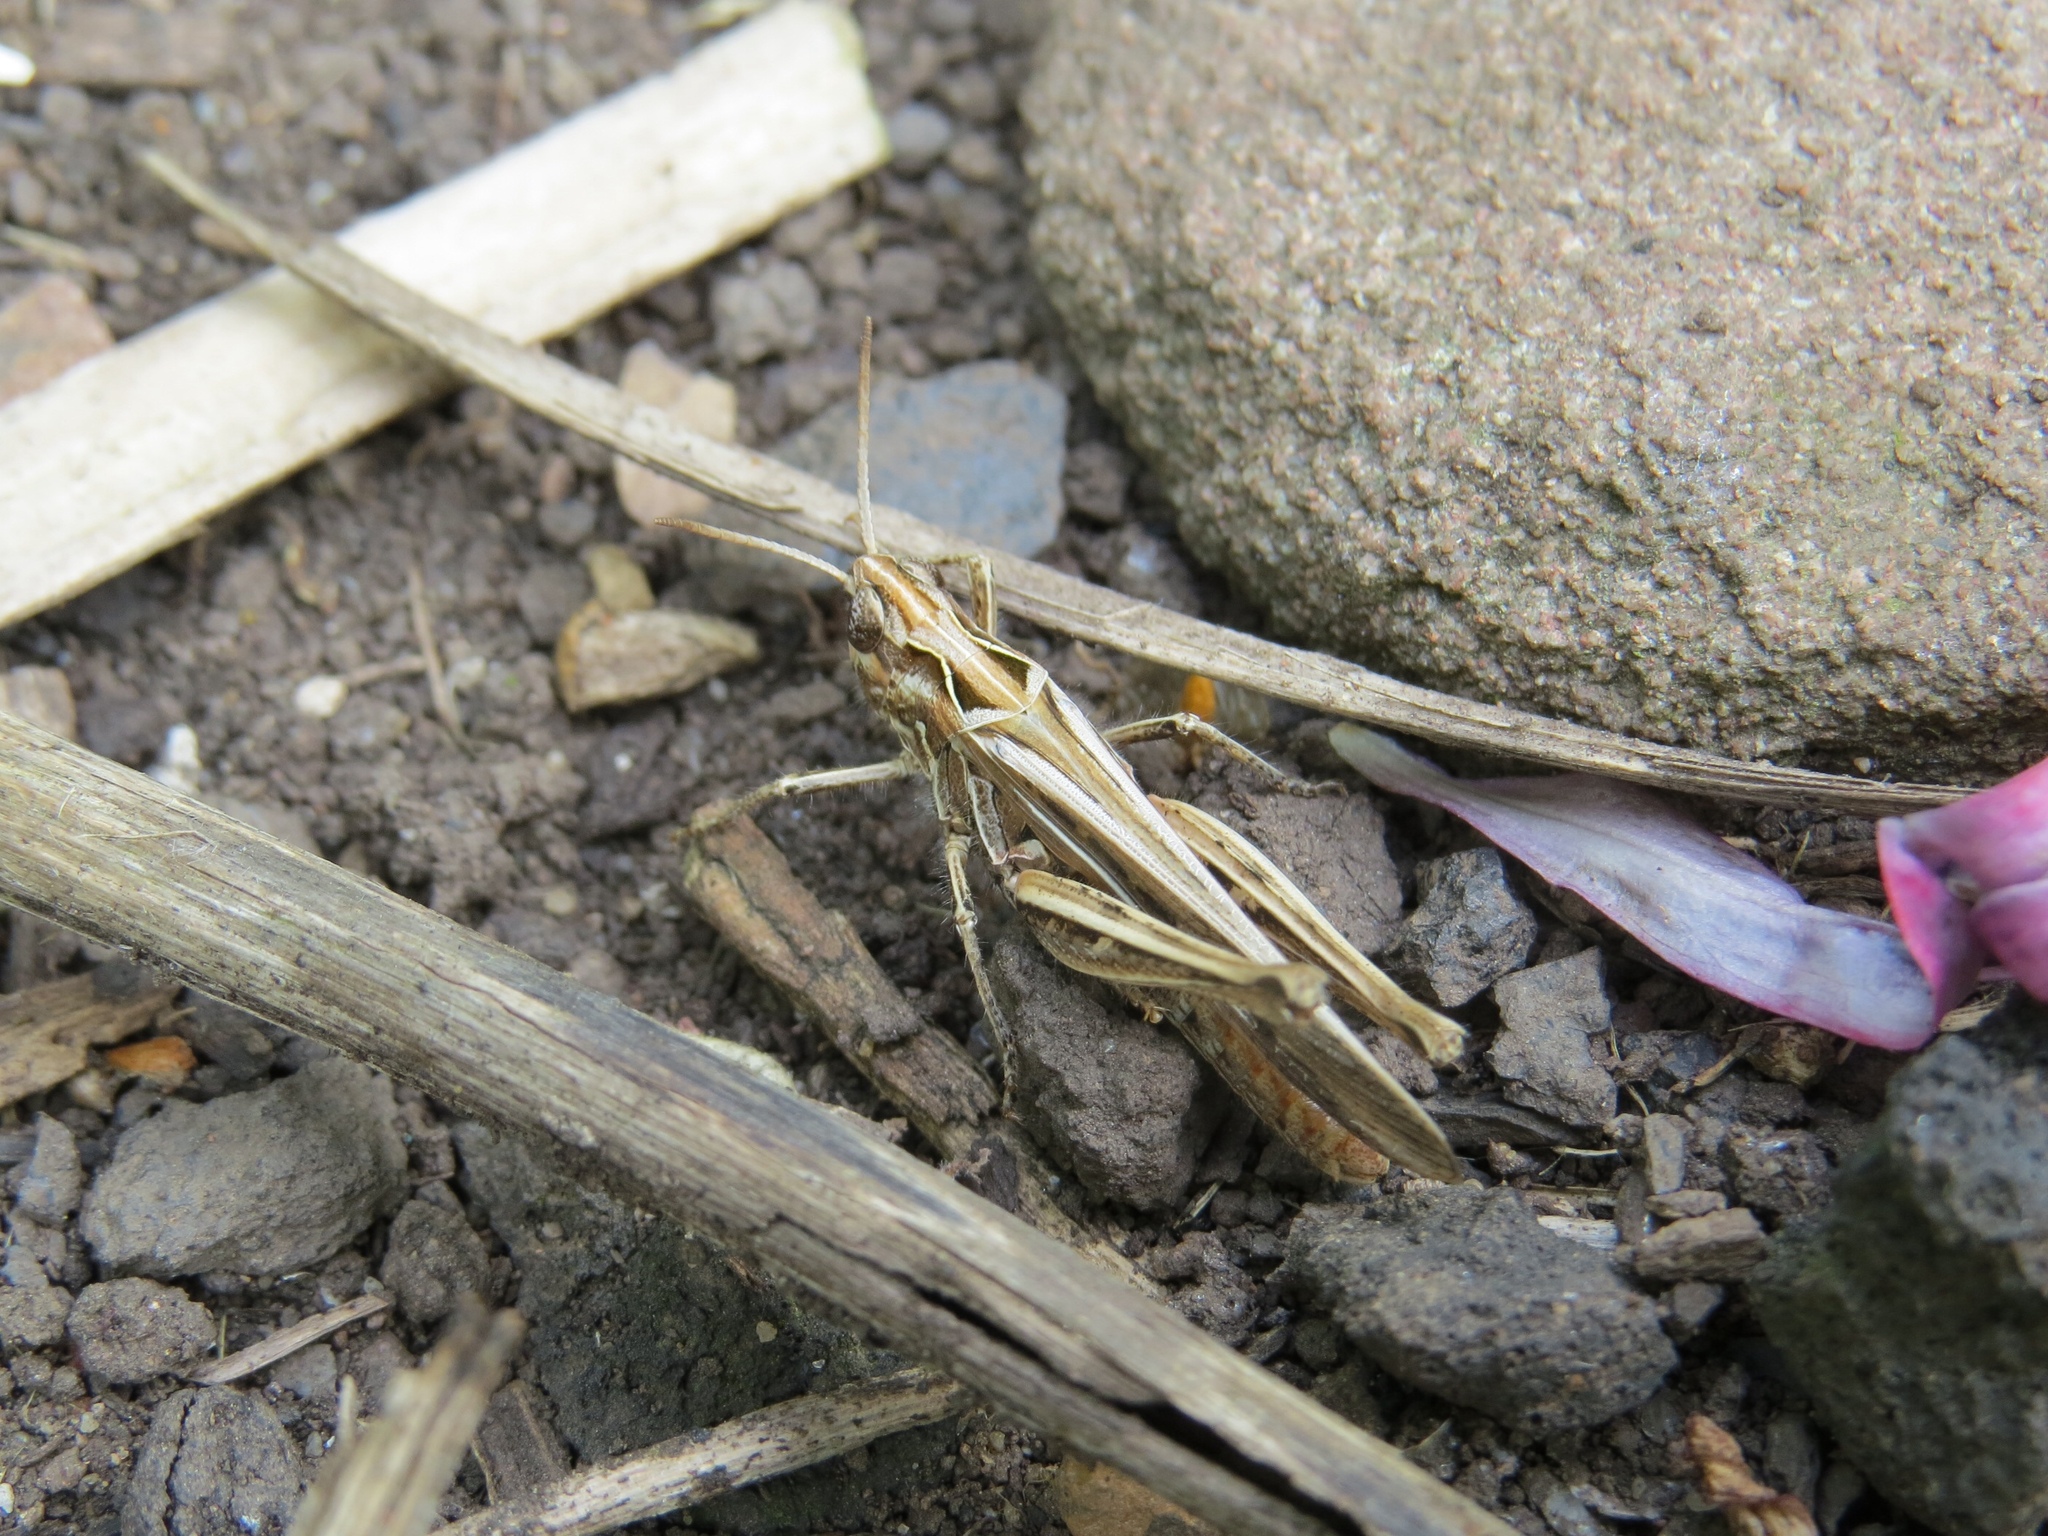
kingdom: Animalia
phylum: Arthropoda
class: Insecta
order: Orthoptera
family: Acrididae
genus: Chorthippus
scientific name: Chorthippus brunneus
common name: Field grasshopper
